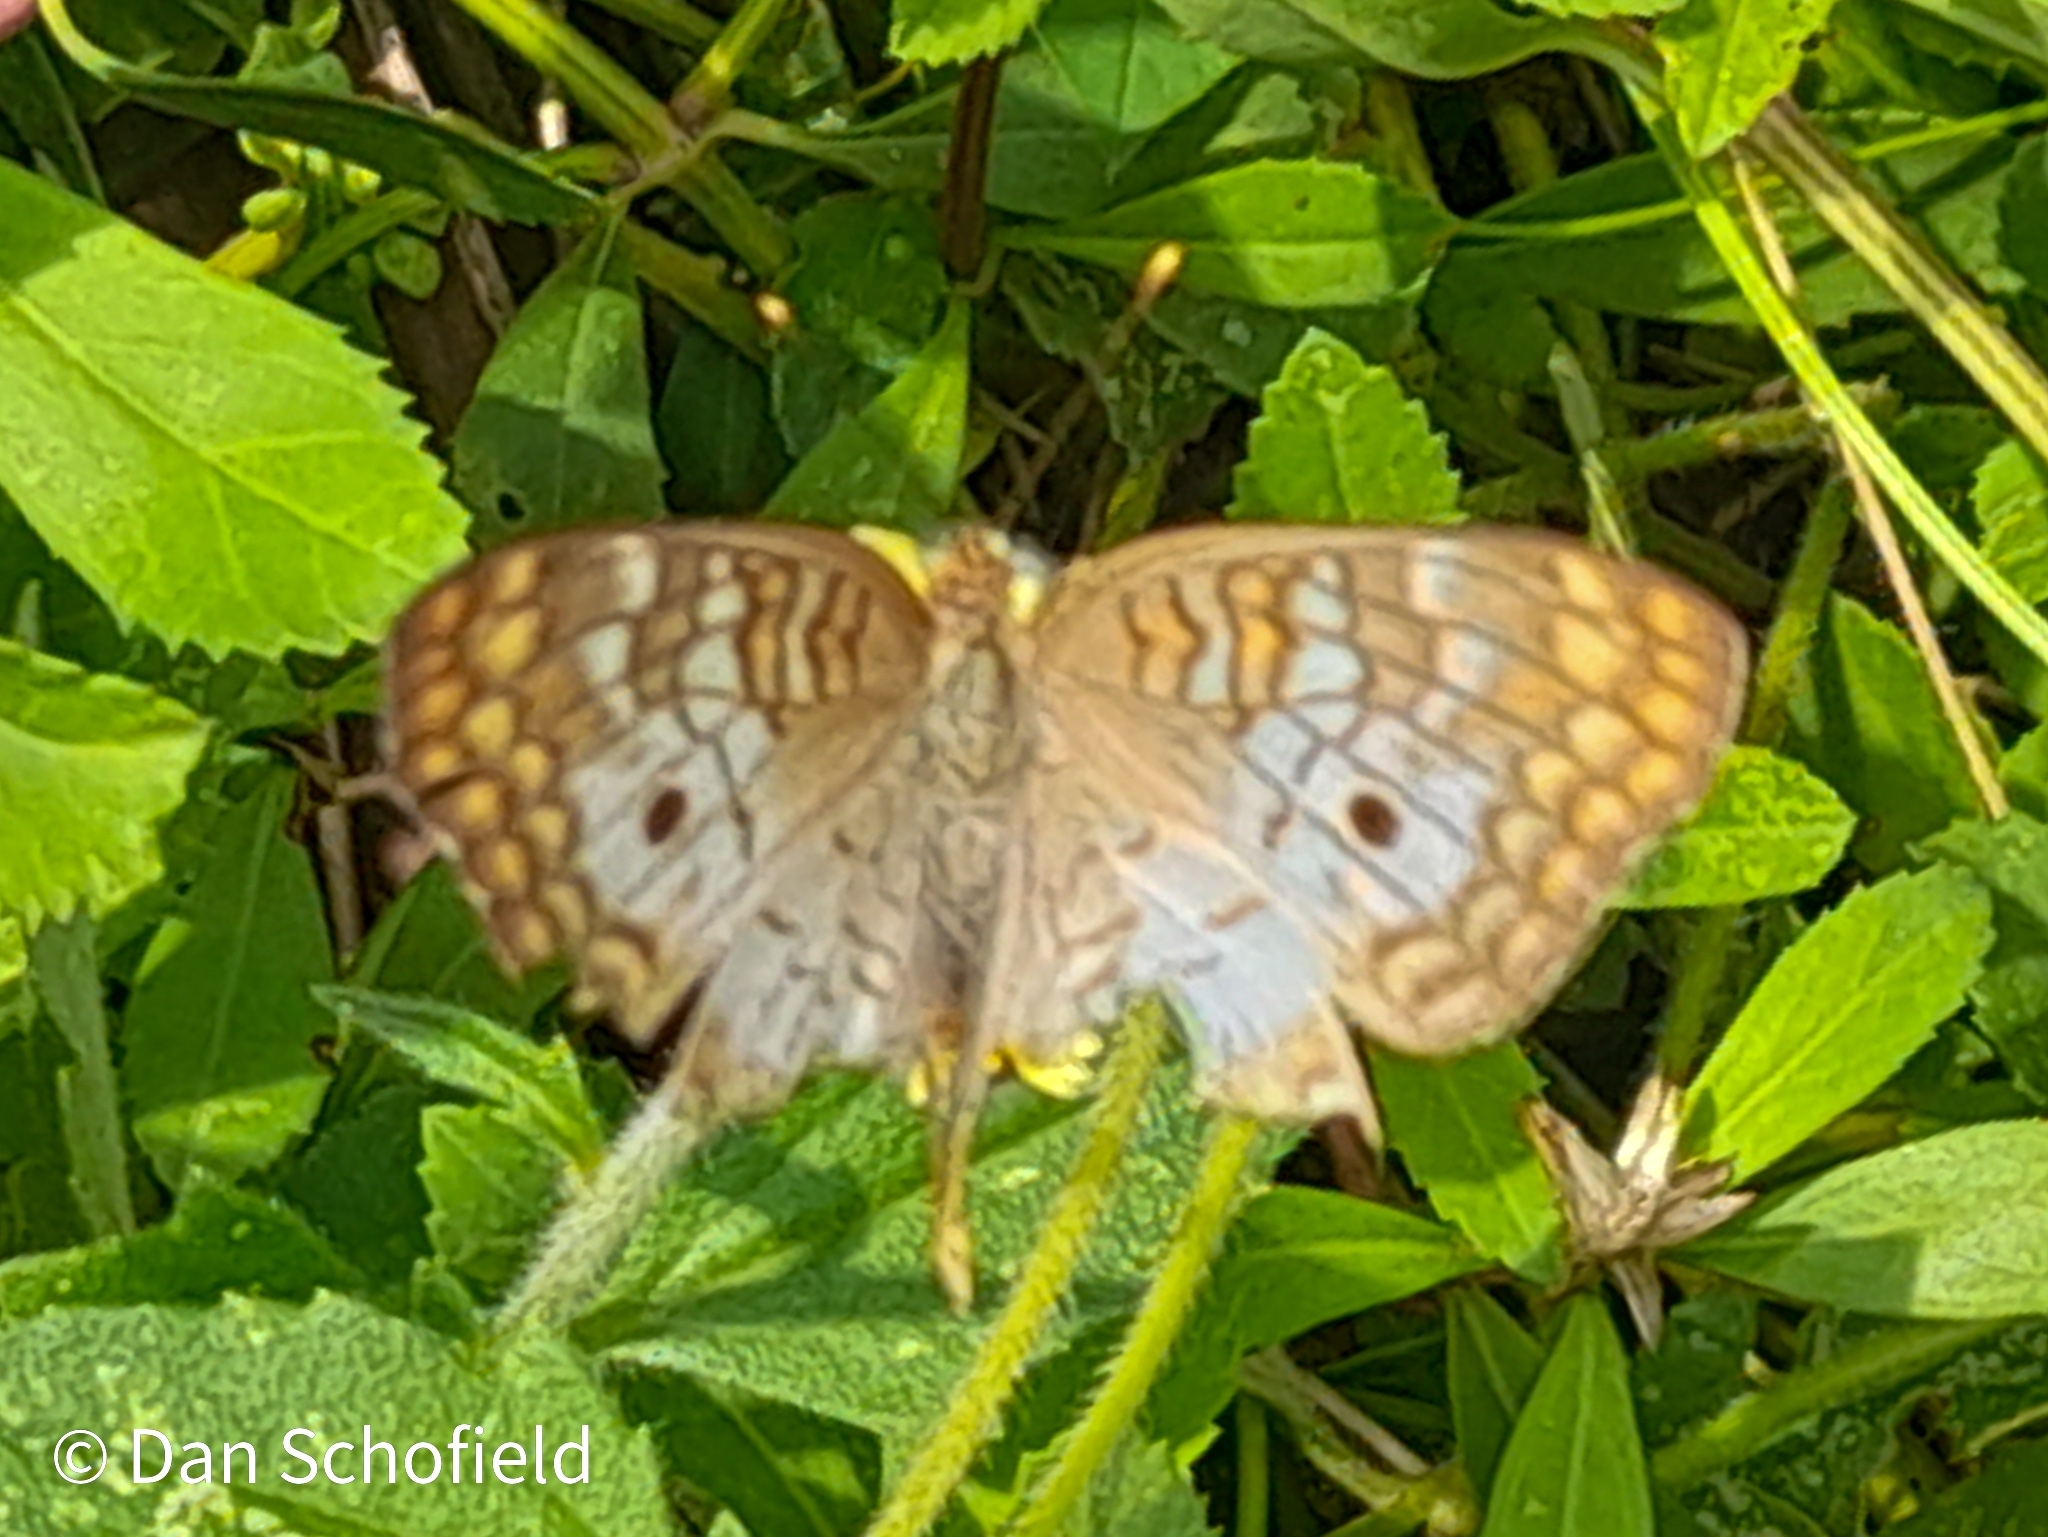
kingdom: Animalia
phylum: Arthropoda
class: Insecta
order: Lepidoptera
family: Nymphalidae
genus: Anartia
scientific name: Anartia jatrophae
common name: White peacock
